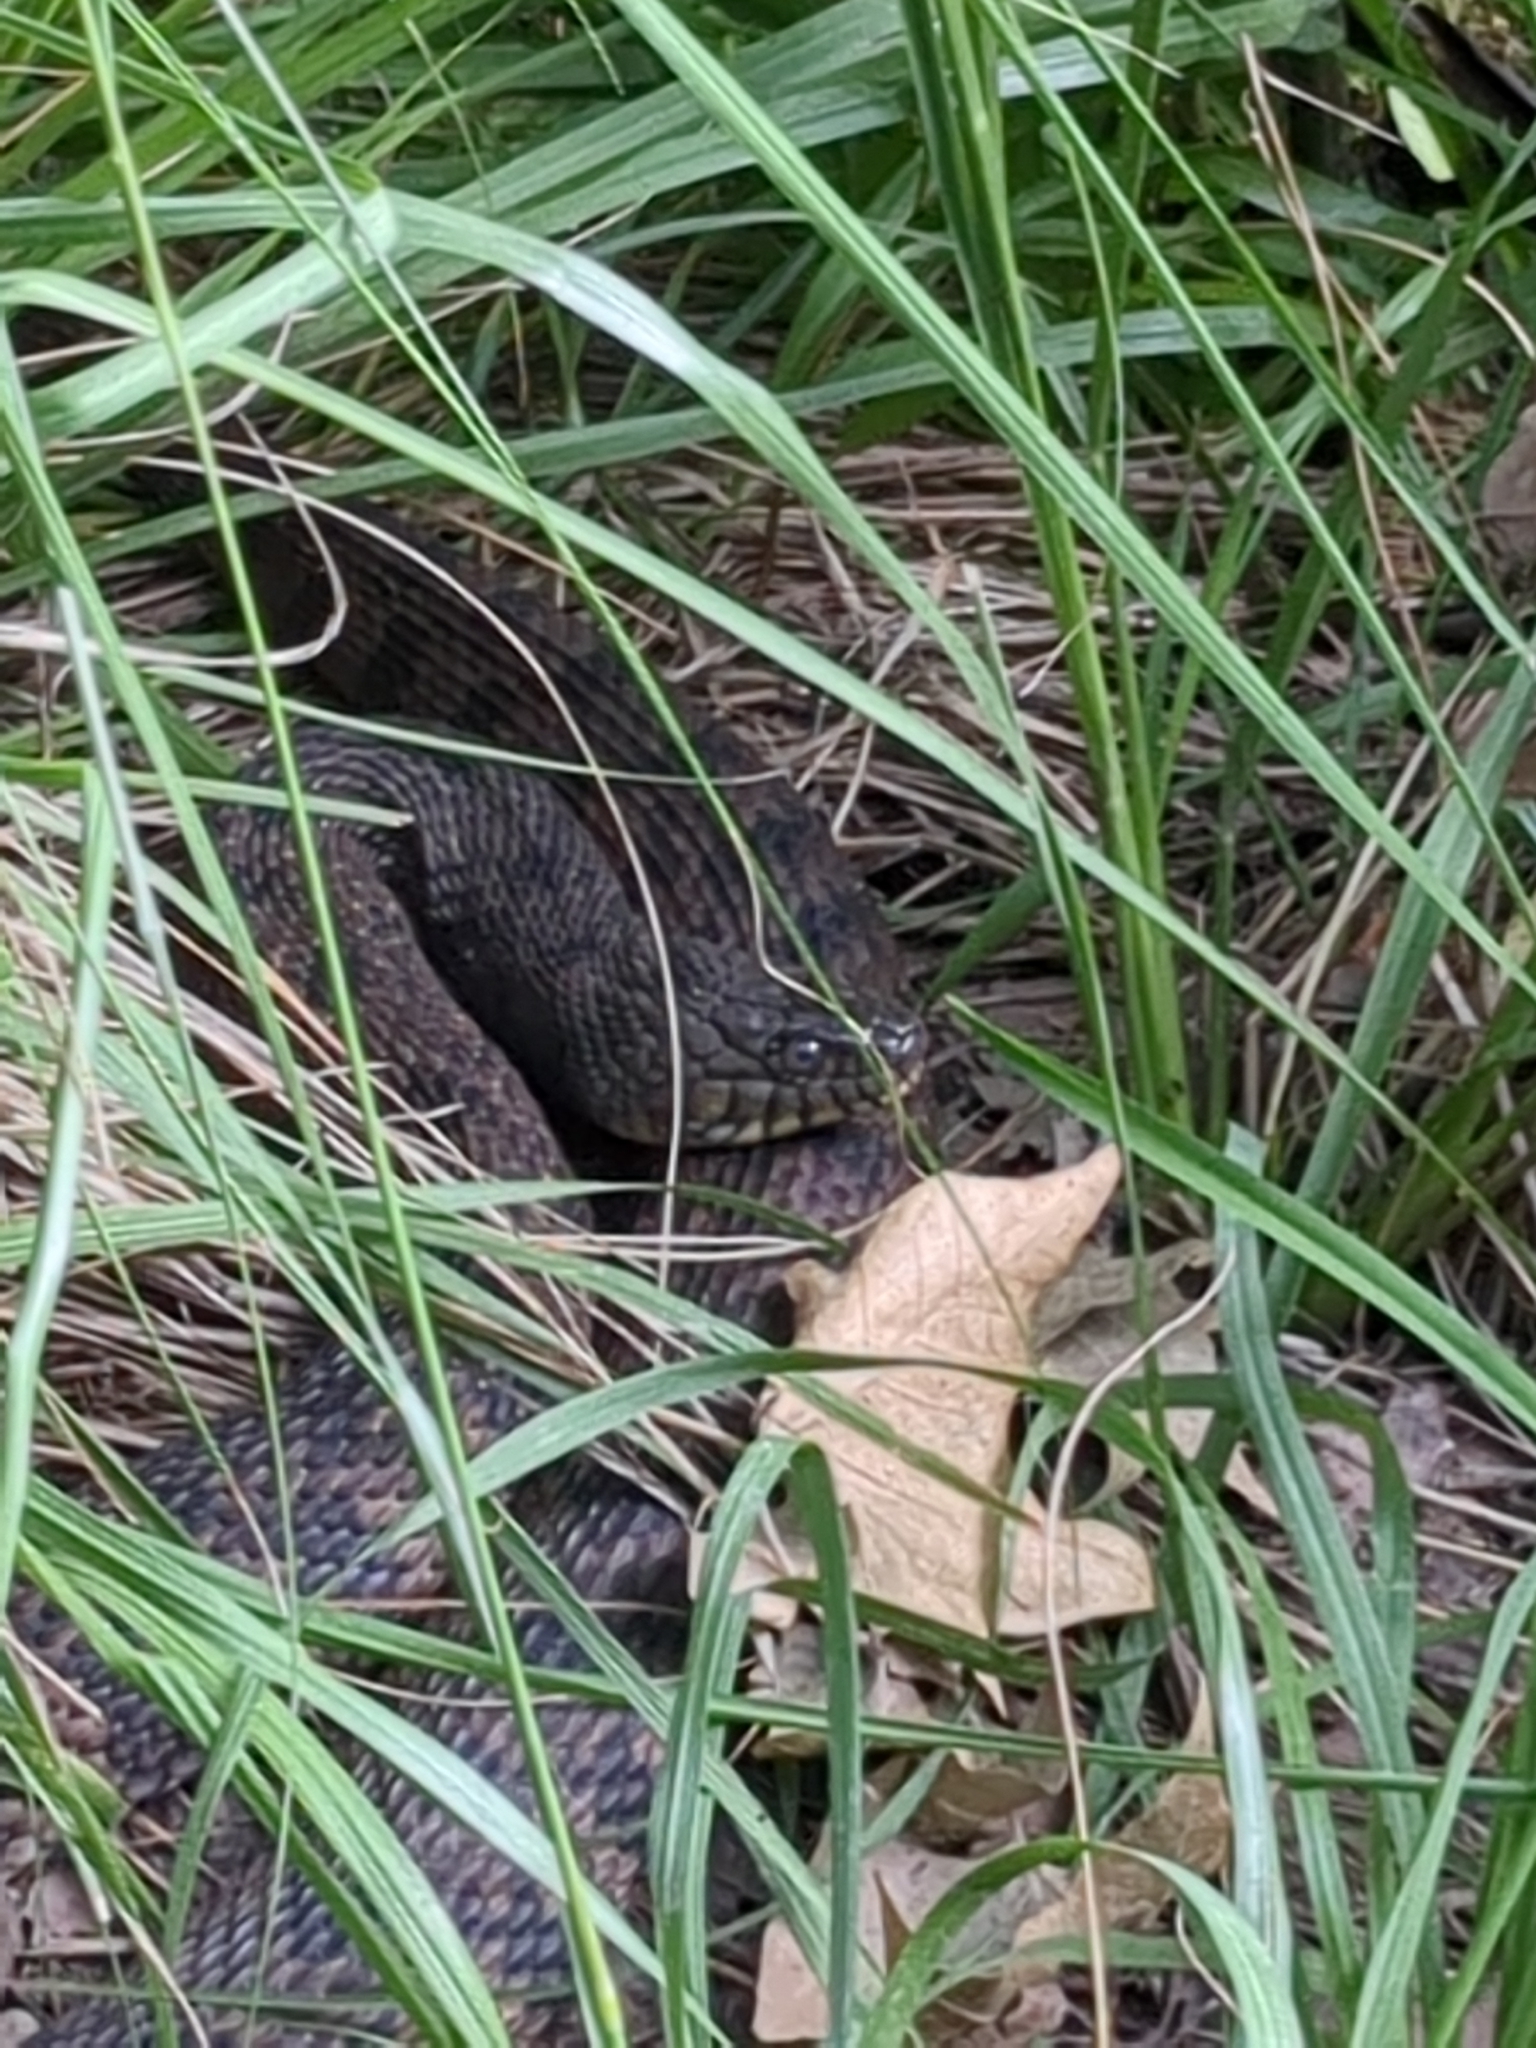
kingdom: Animalia
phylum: Chordata
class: Squamata
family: Colubridae
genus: Nerodia
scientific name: Nerodia rhombifer
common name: Diamondback water snake
